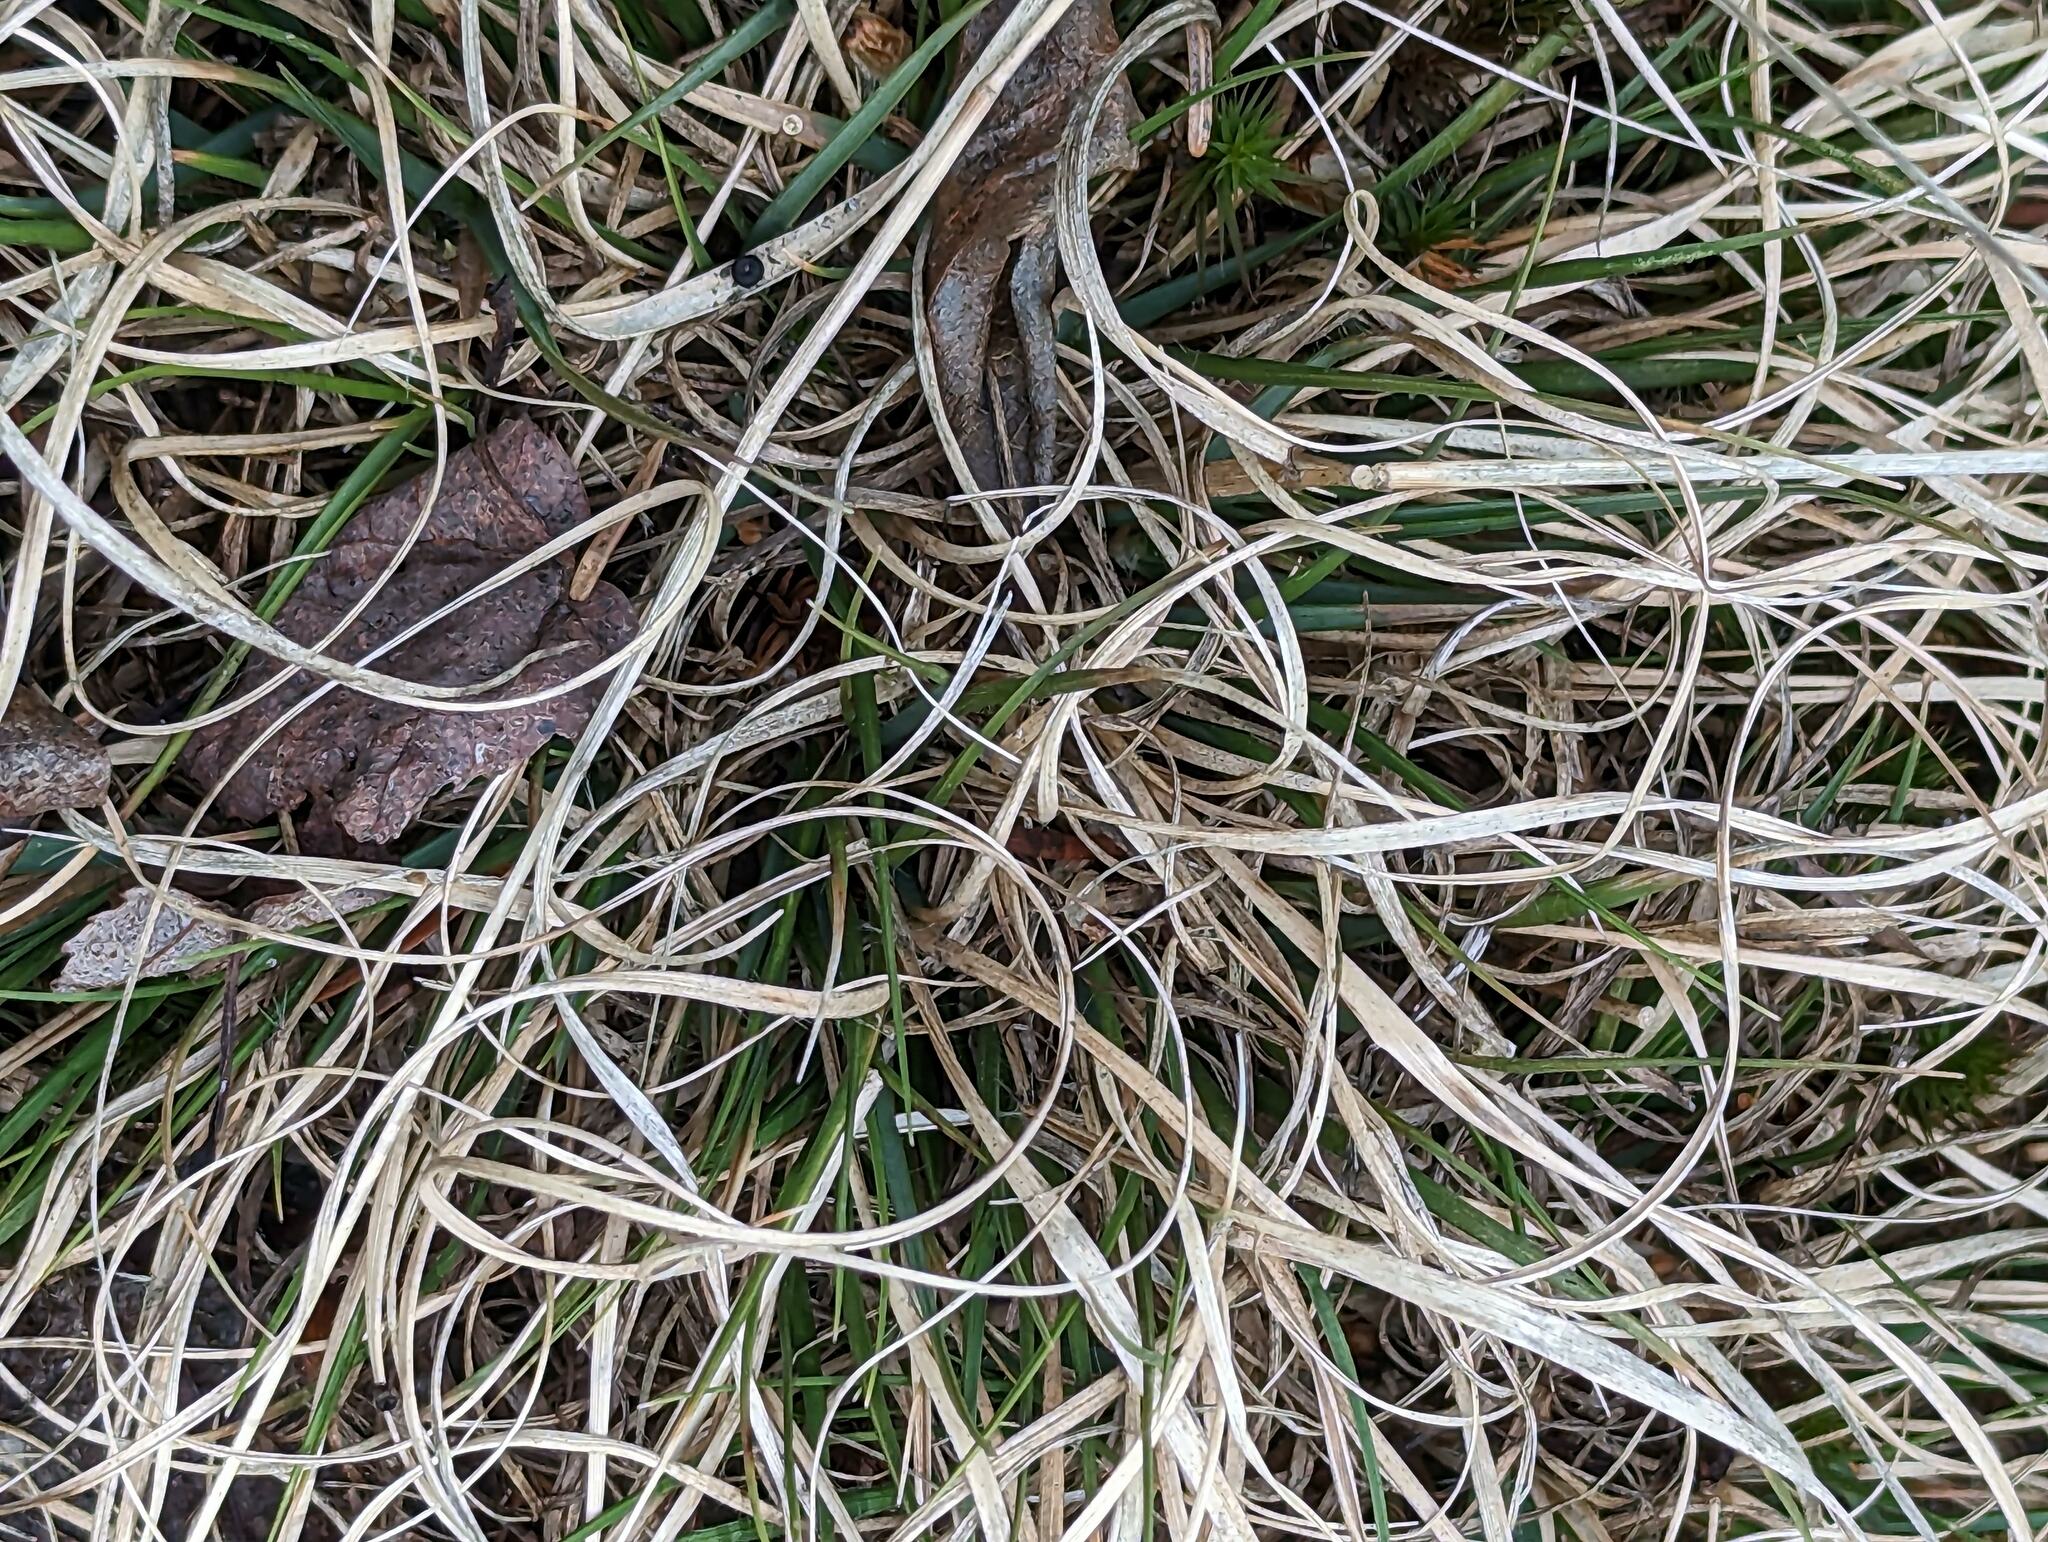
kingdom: Plantae
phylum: Tracheophyta
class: Liliopsida
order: Poales
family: Poaceae
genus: Danthonia
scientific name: Danthonia spicata
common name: Common wild oatgrass
